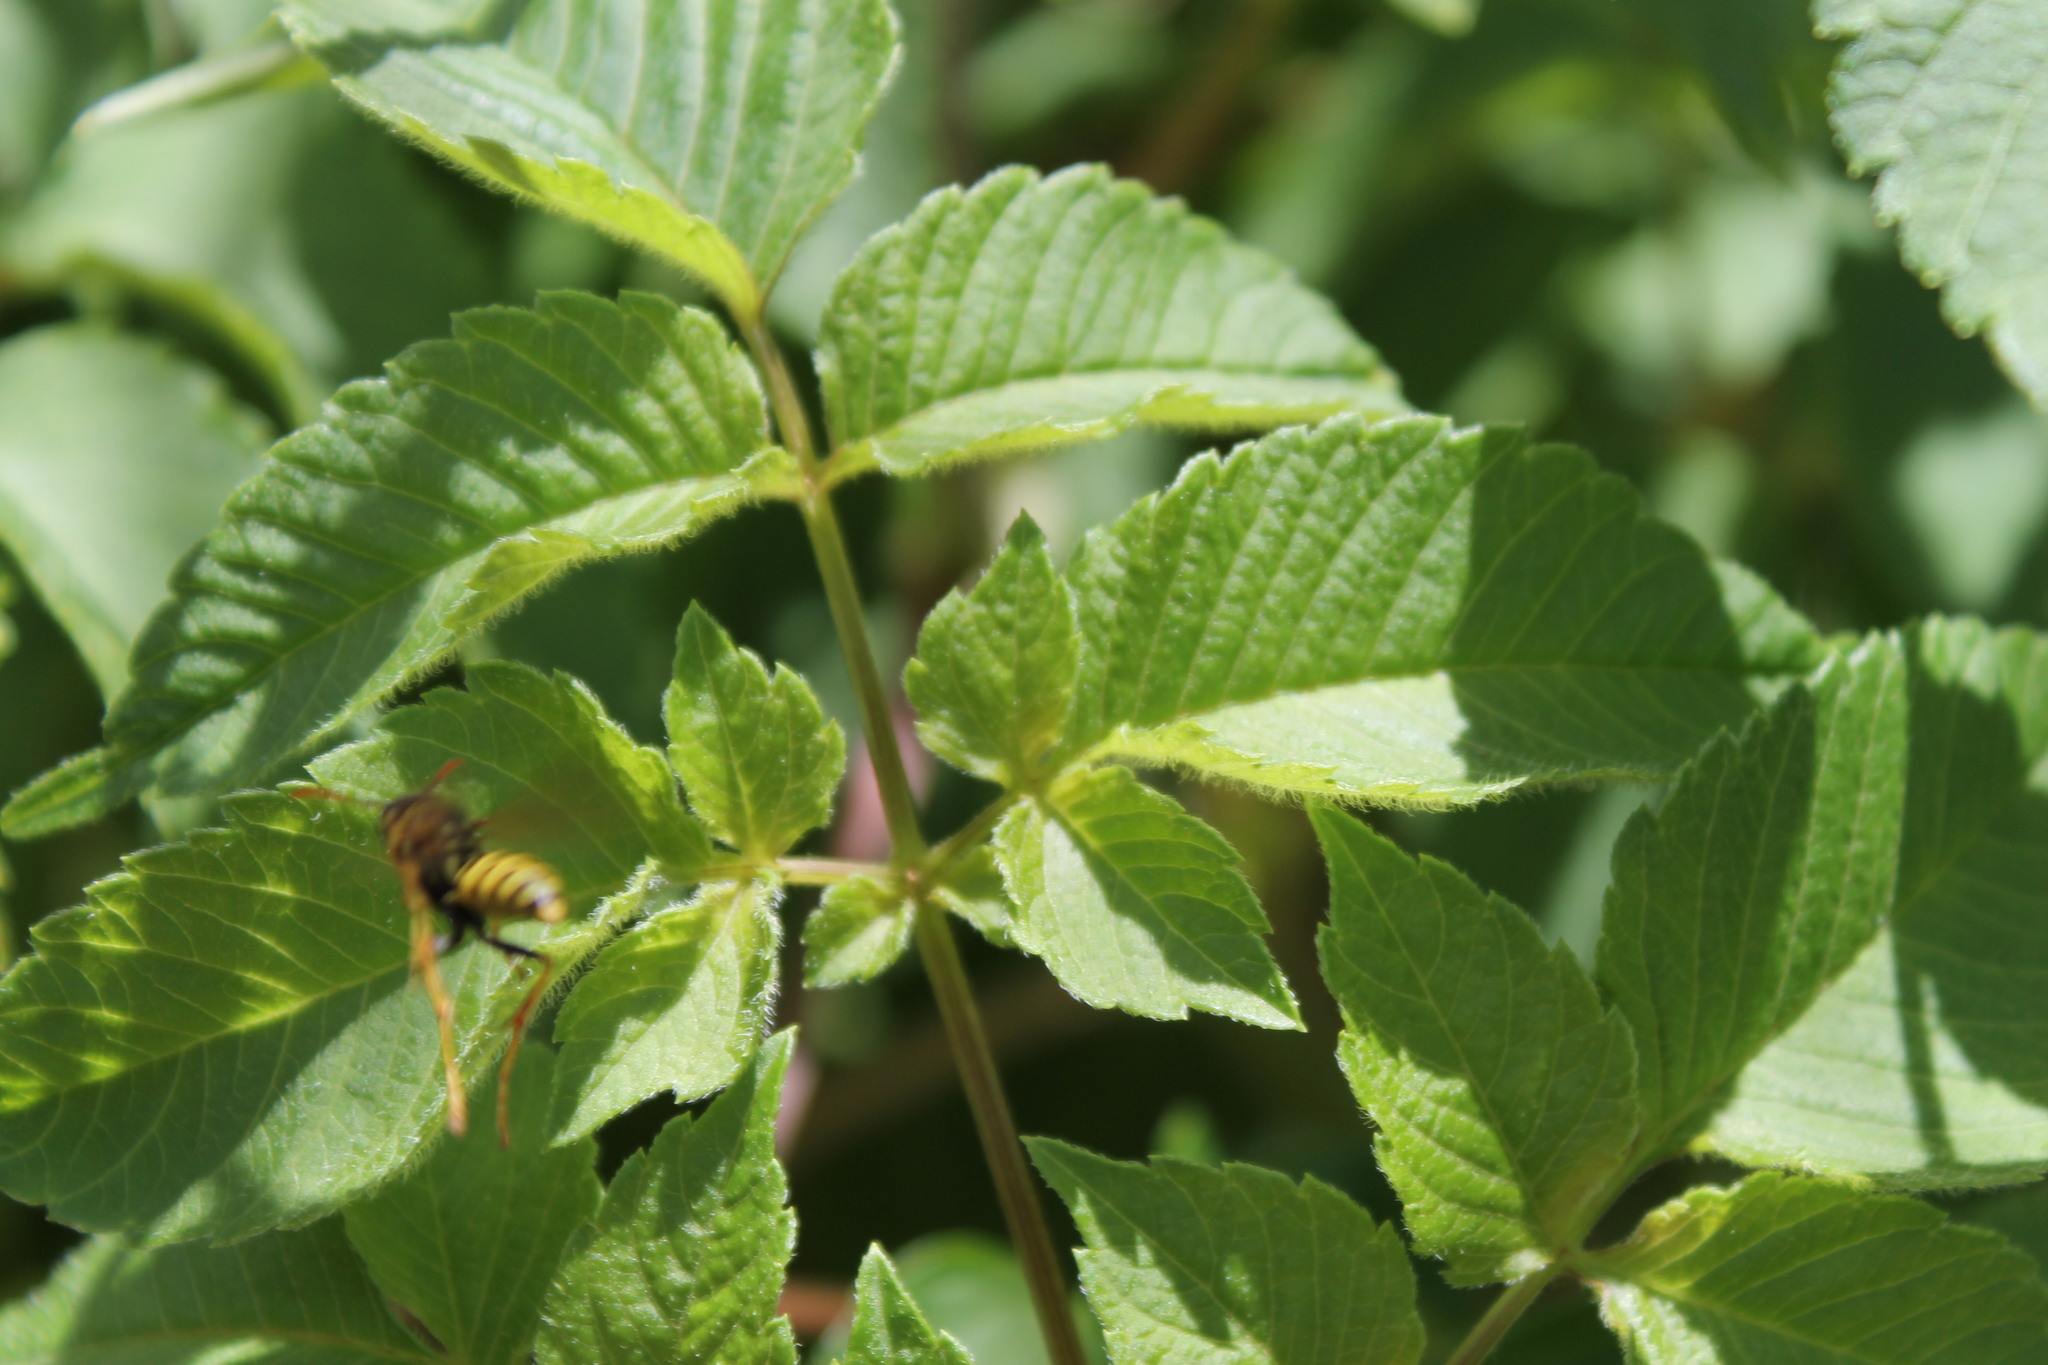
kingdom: Animalia
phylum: Arthropoda
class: Insecta
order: Hymenoptera
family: Eumenidae
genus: Polistes
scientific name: Polistes dominula
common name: Paper wasp
